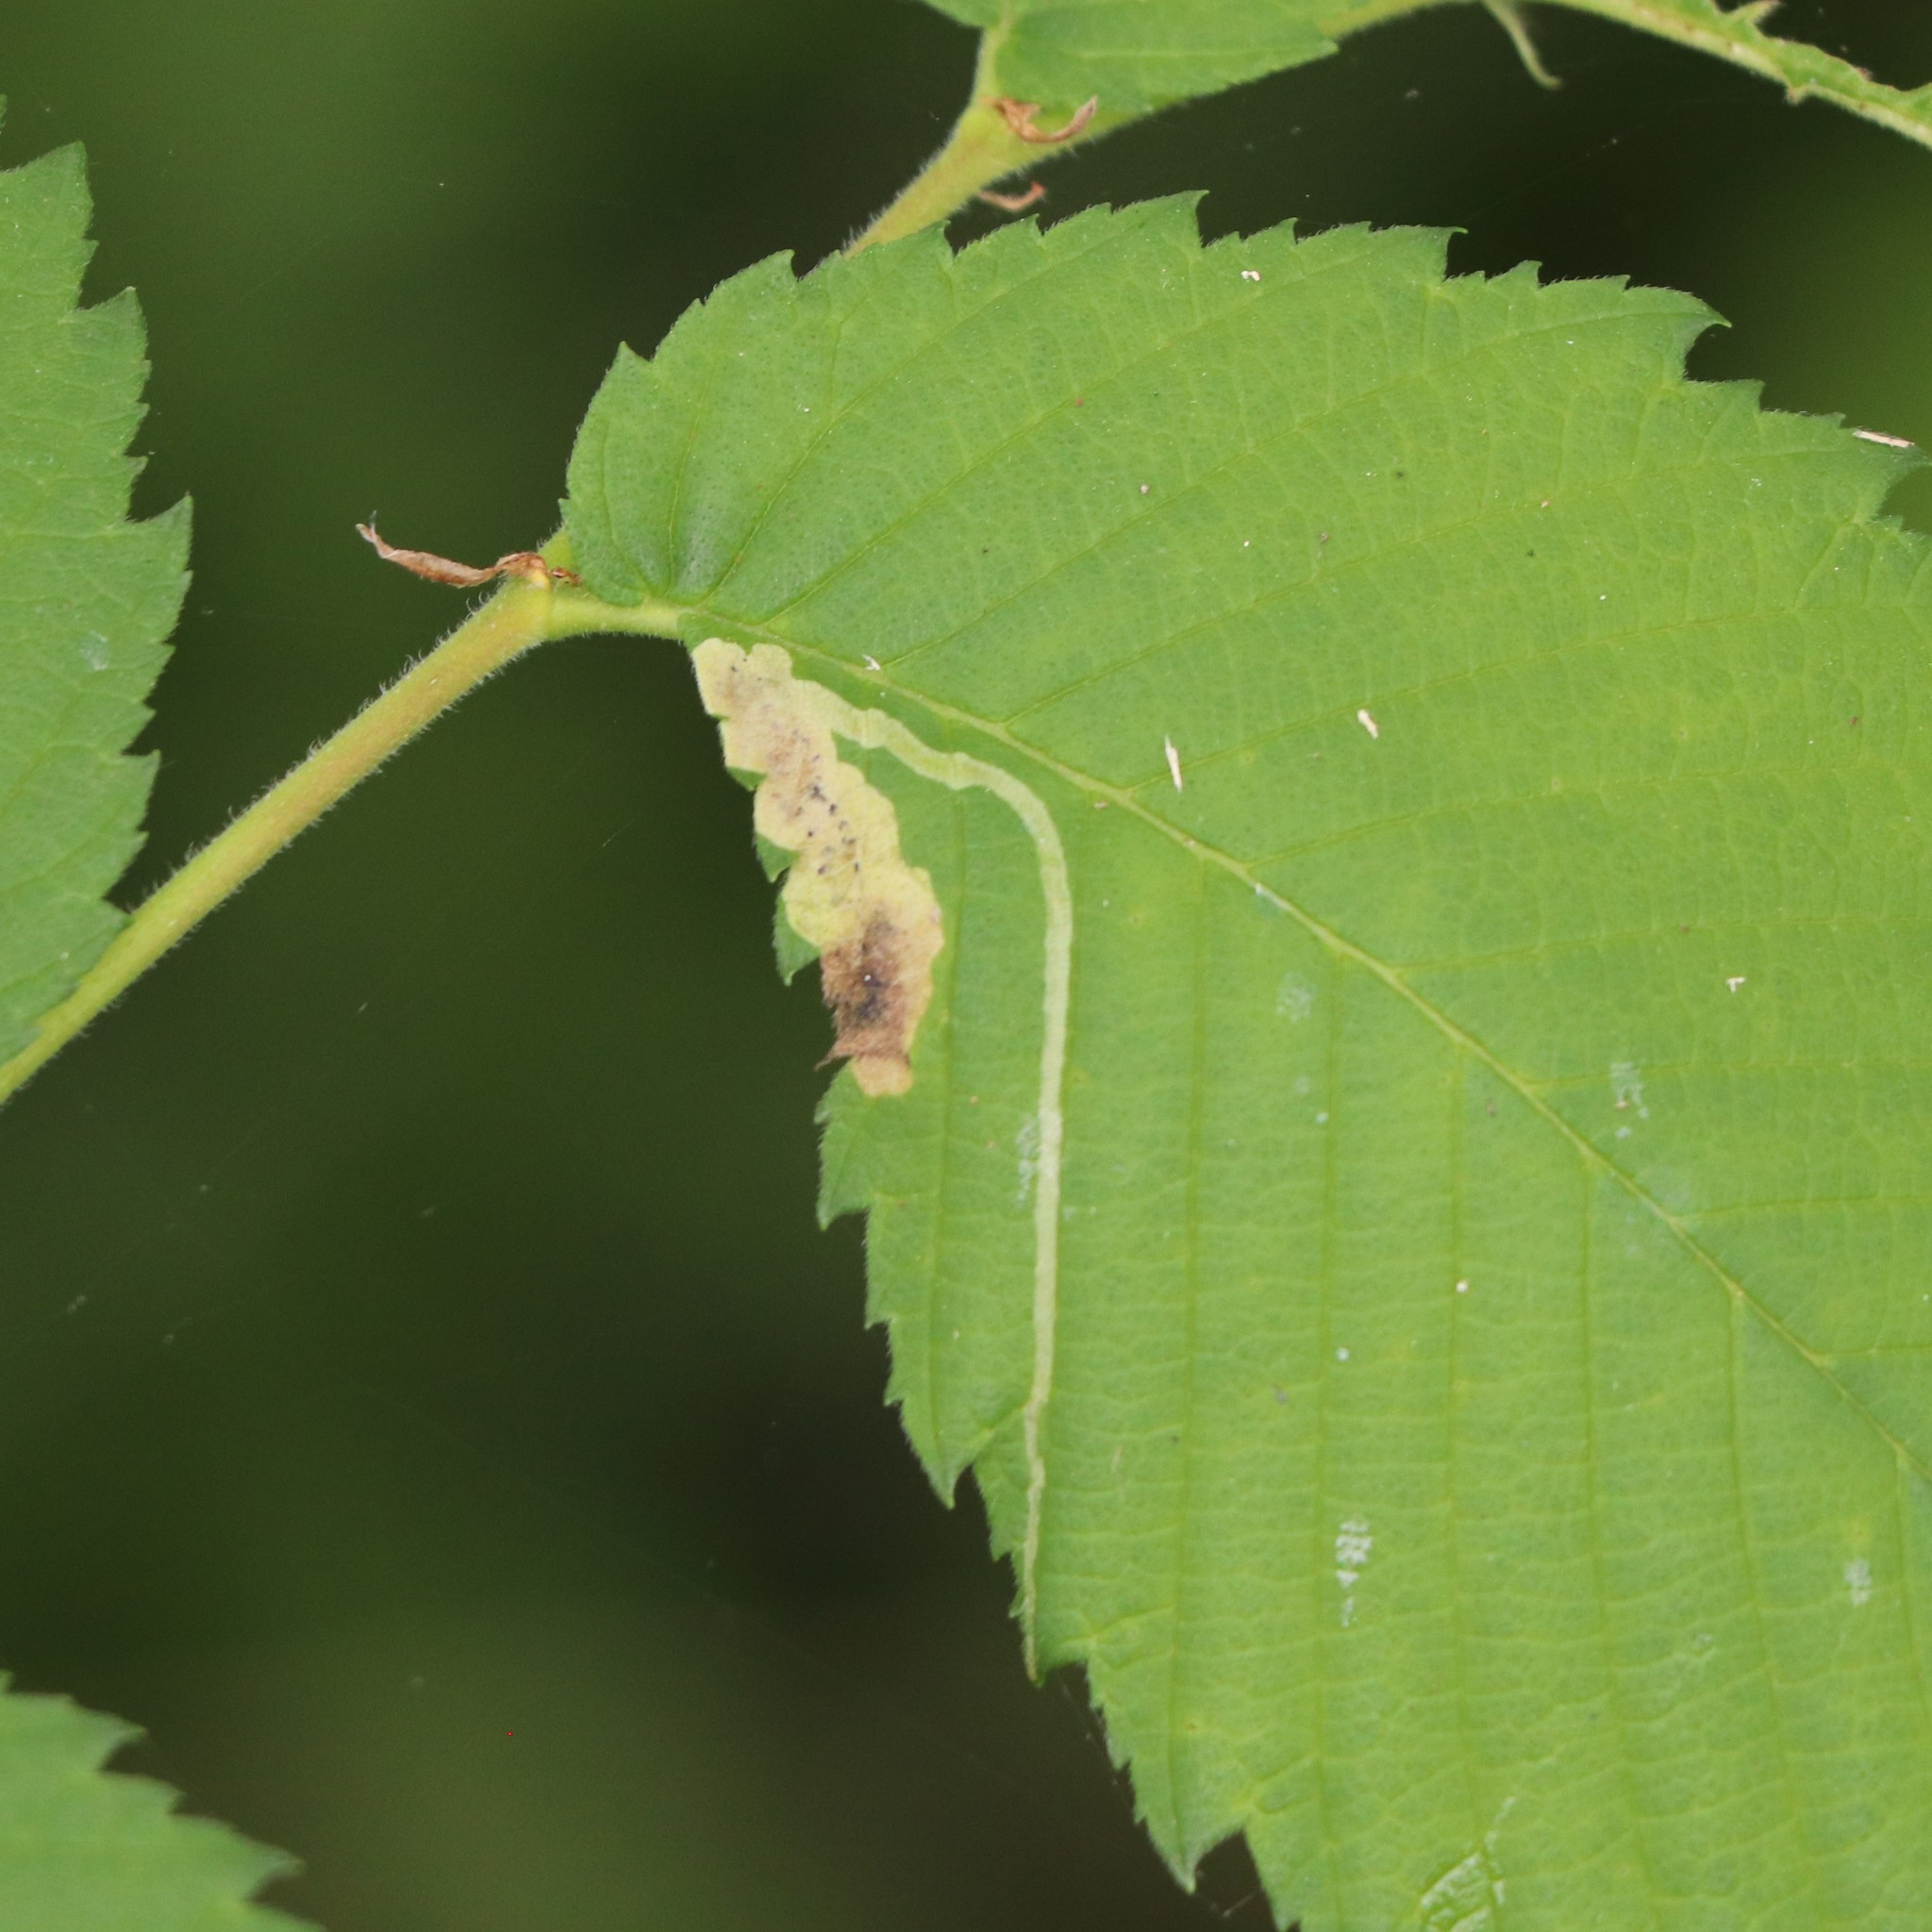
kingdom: Animalia
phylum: Arthropoda
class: Insecta
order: Diptera
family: Agromyzidae
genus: Agromyza
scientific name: Agromyza aristata
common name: Elm agromyzid leafminer
